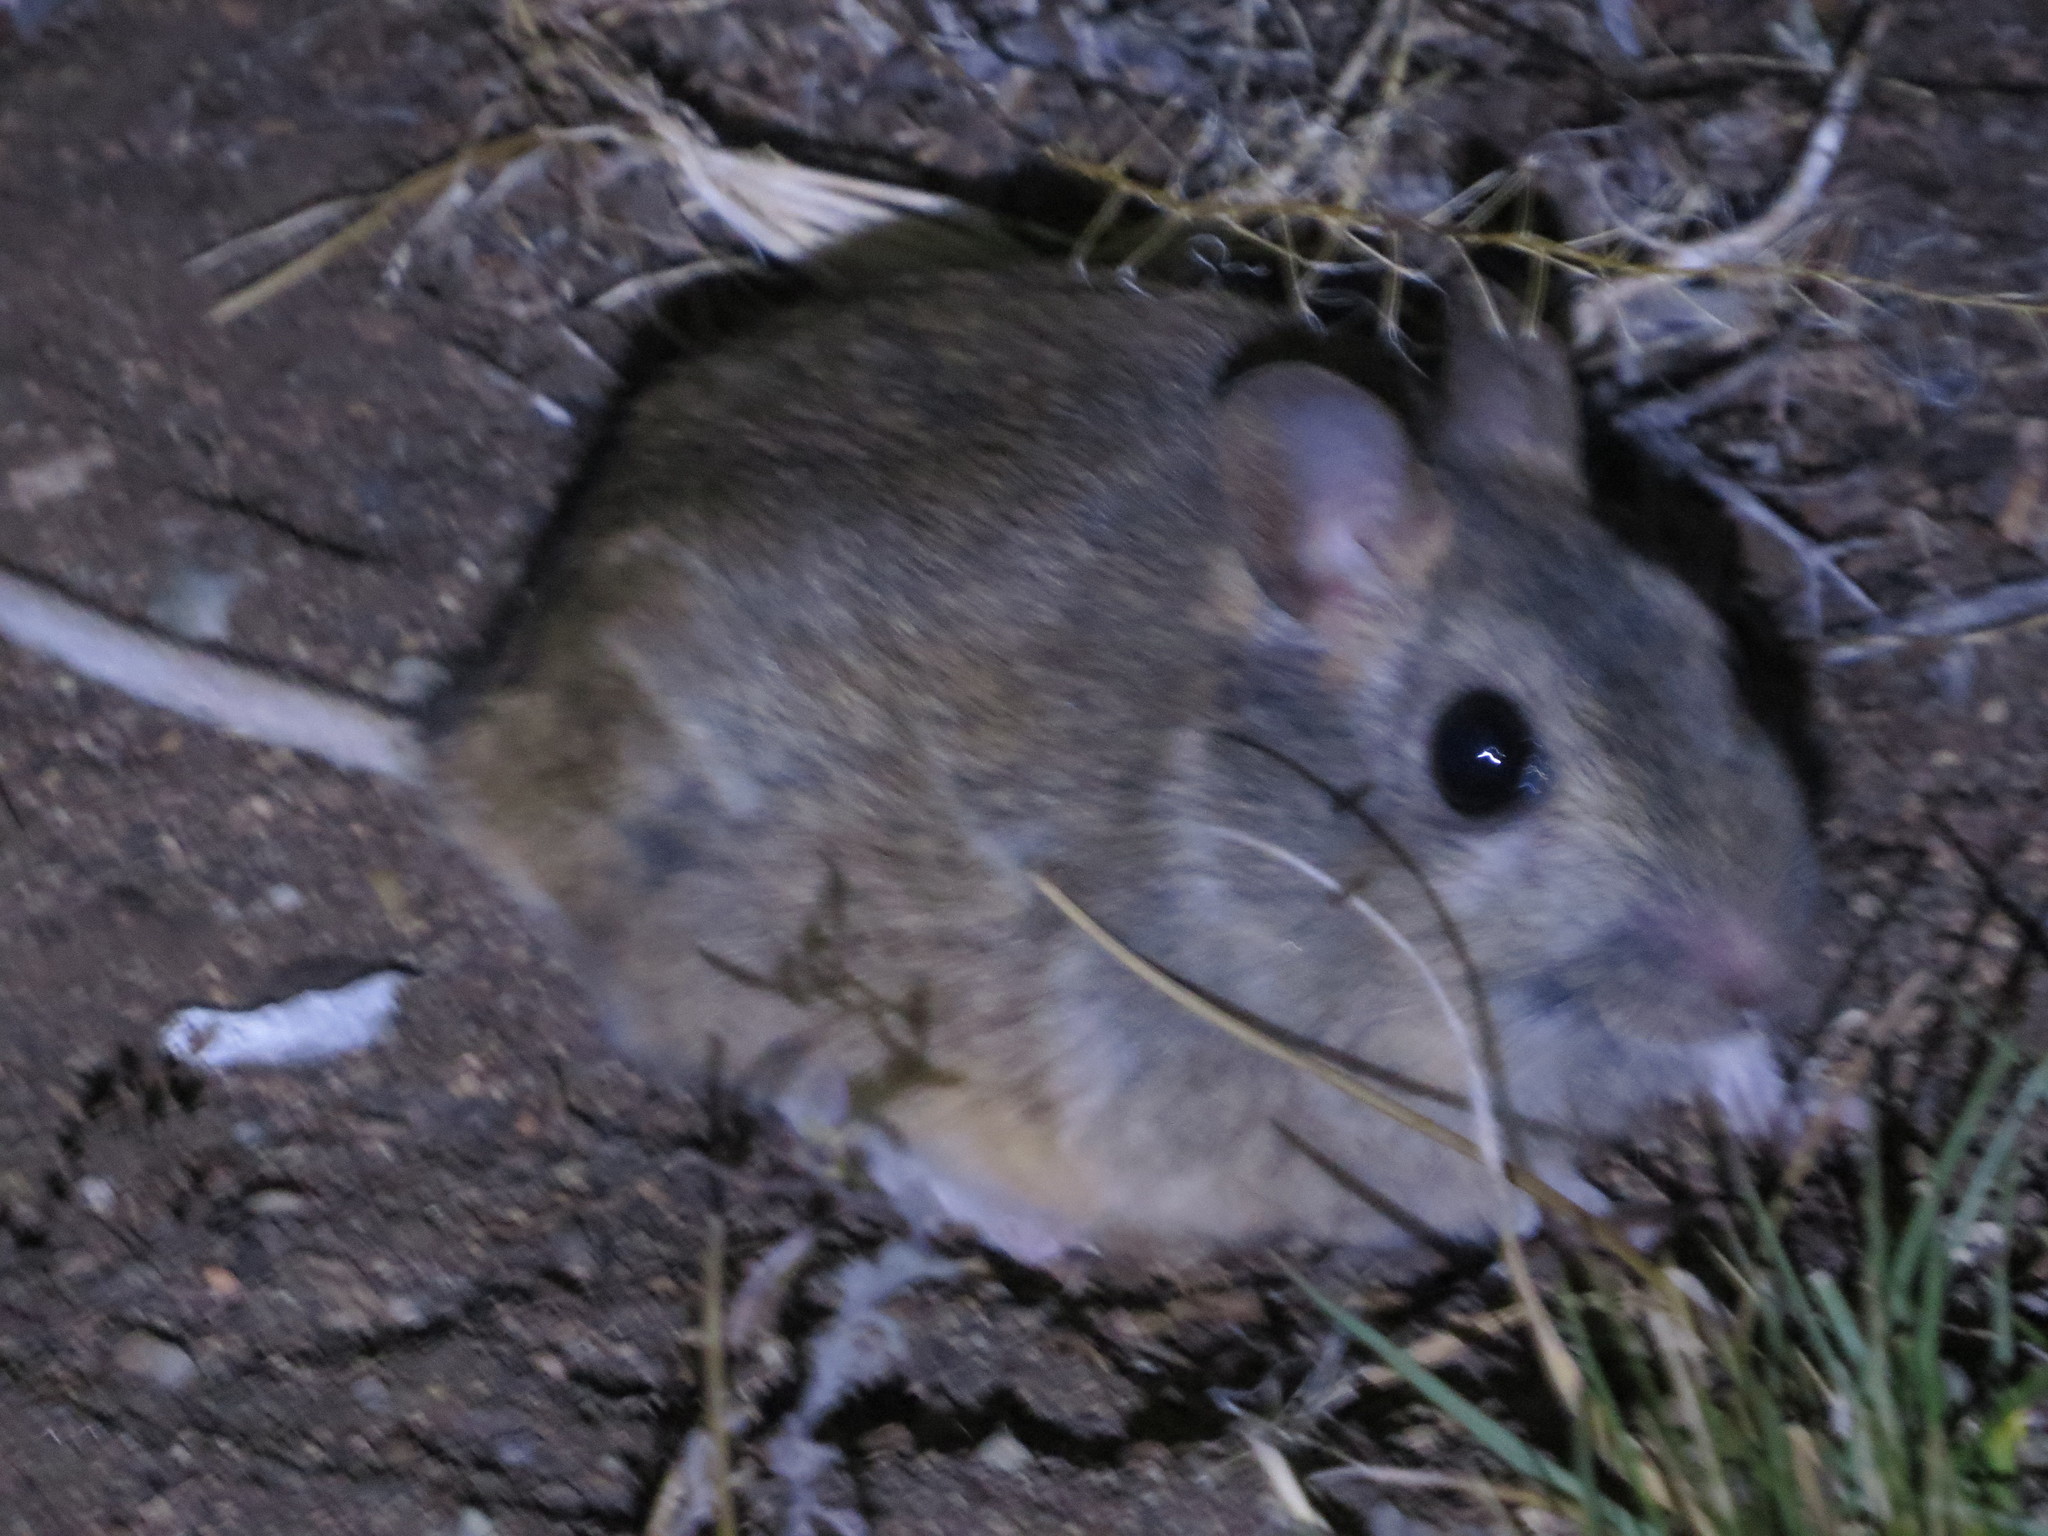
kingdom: Animalia
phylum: Chordata
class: Mammalia
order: Rodentia
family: Cricetidae
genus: Reithrodon
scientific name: Reithrodon auritus
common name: Bunny rat
